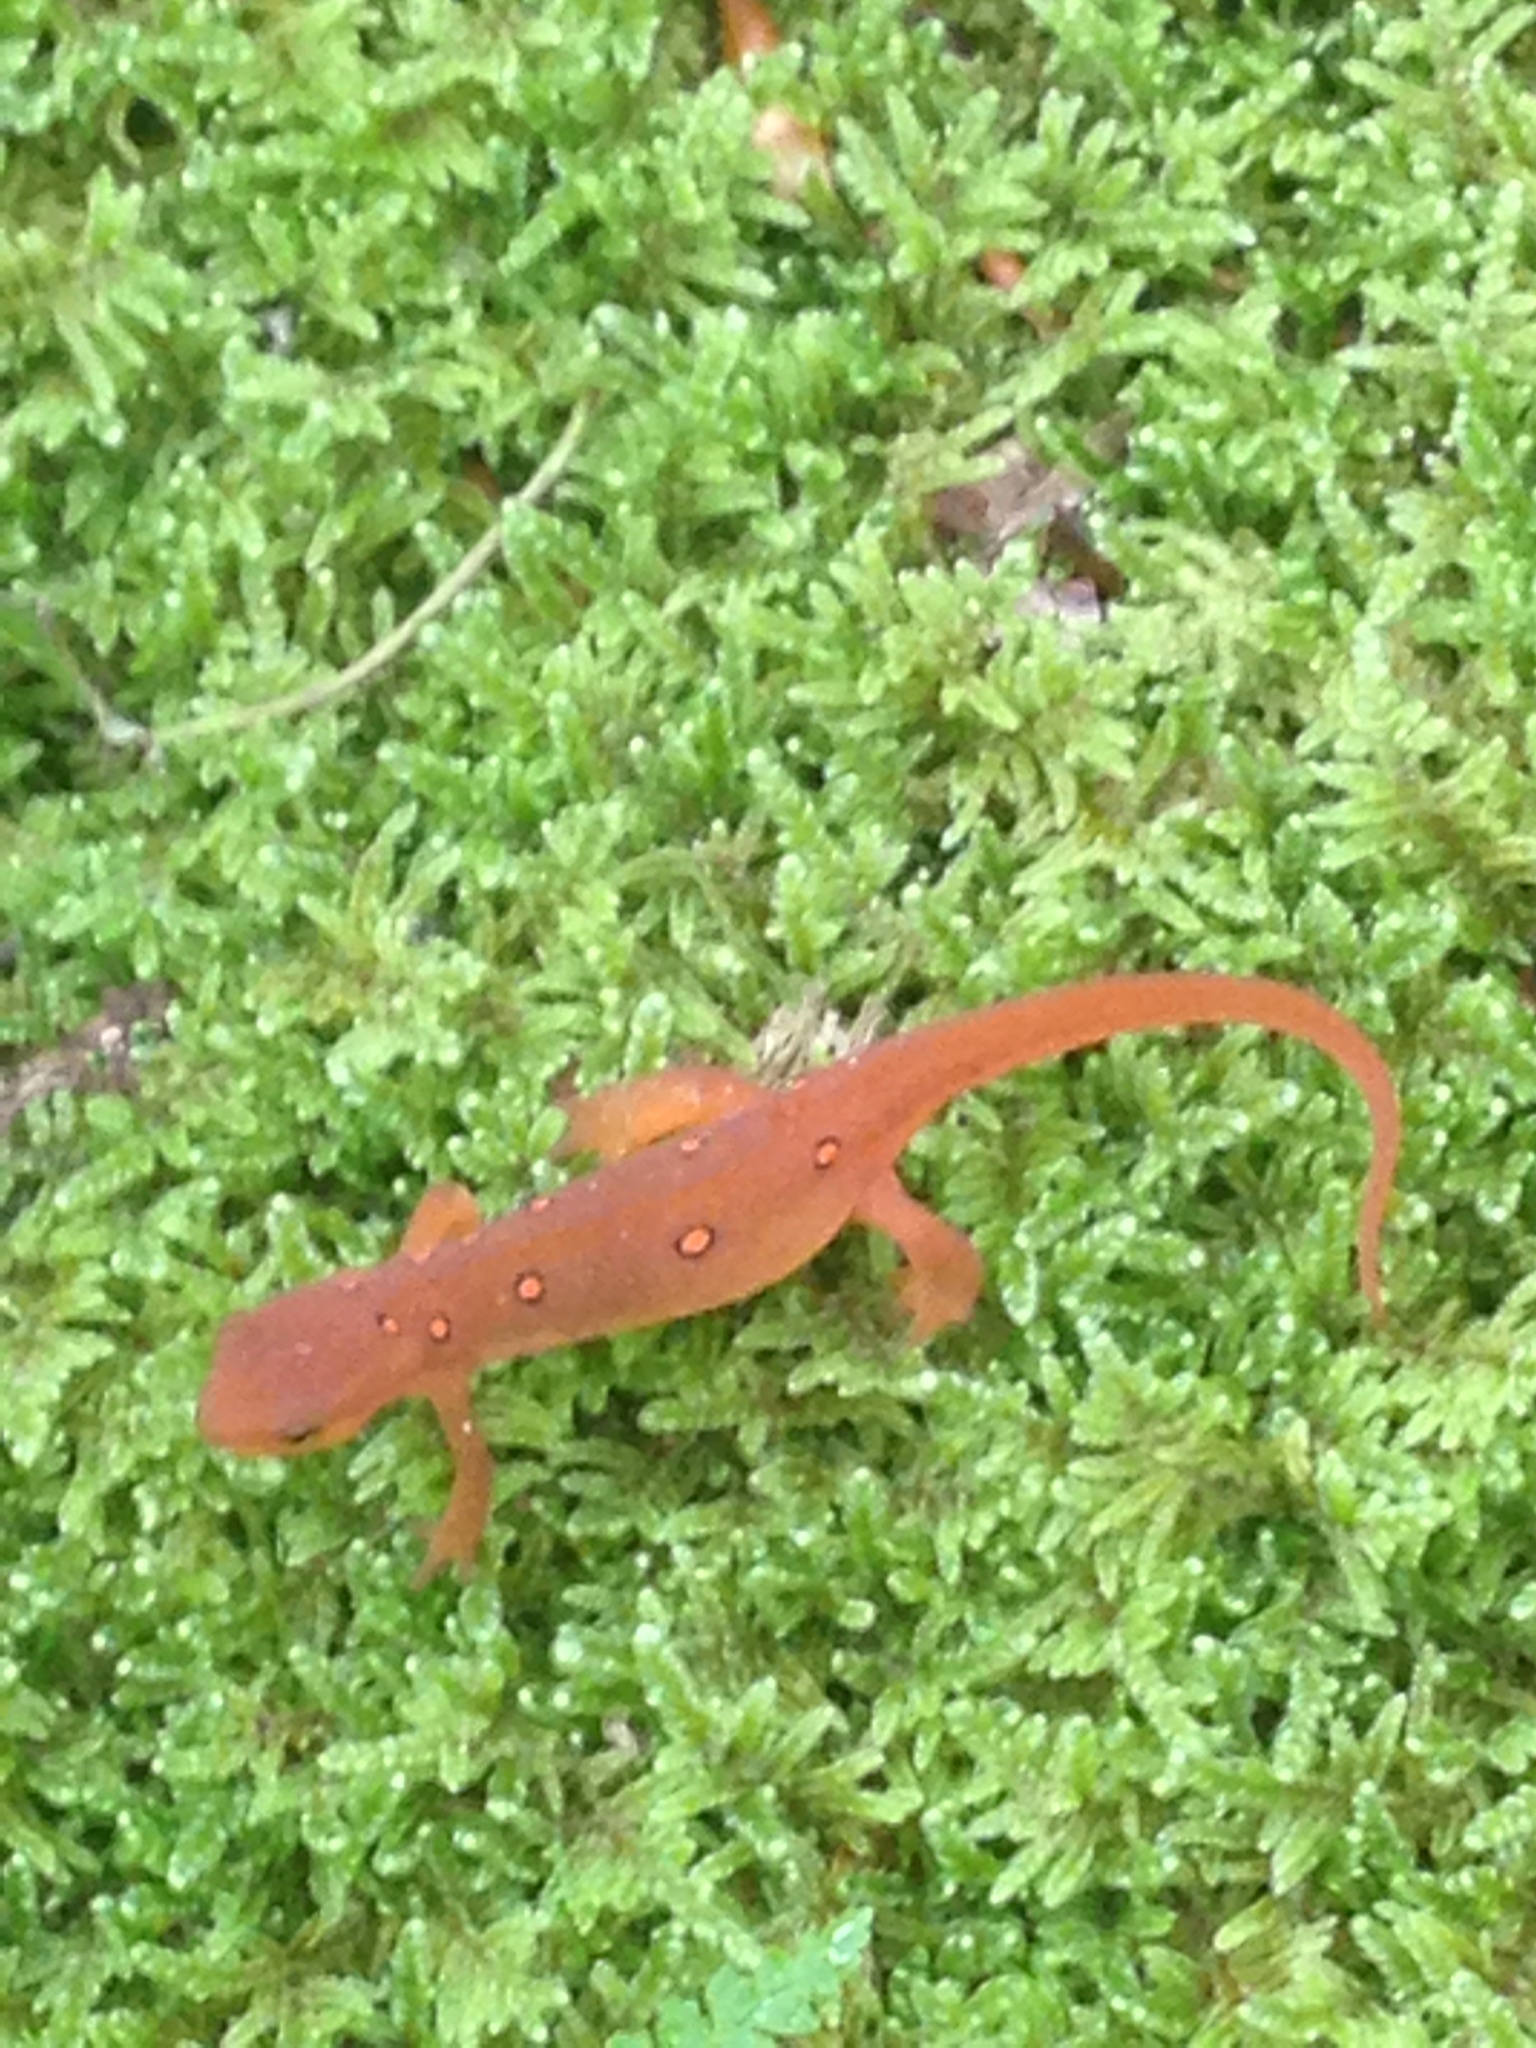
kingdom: Animalia
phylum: Chordata
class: Amphibia
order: Caudata
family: Salamandridae
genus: Notophthalmus
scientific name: Notophthalmus viridescens
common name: Eastern newt
